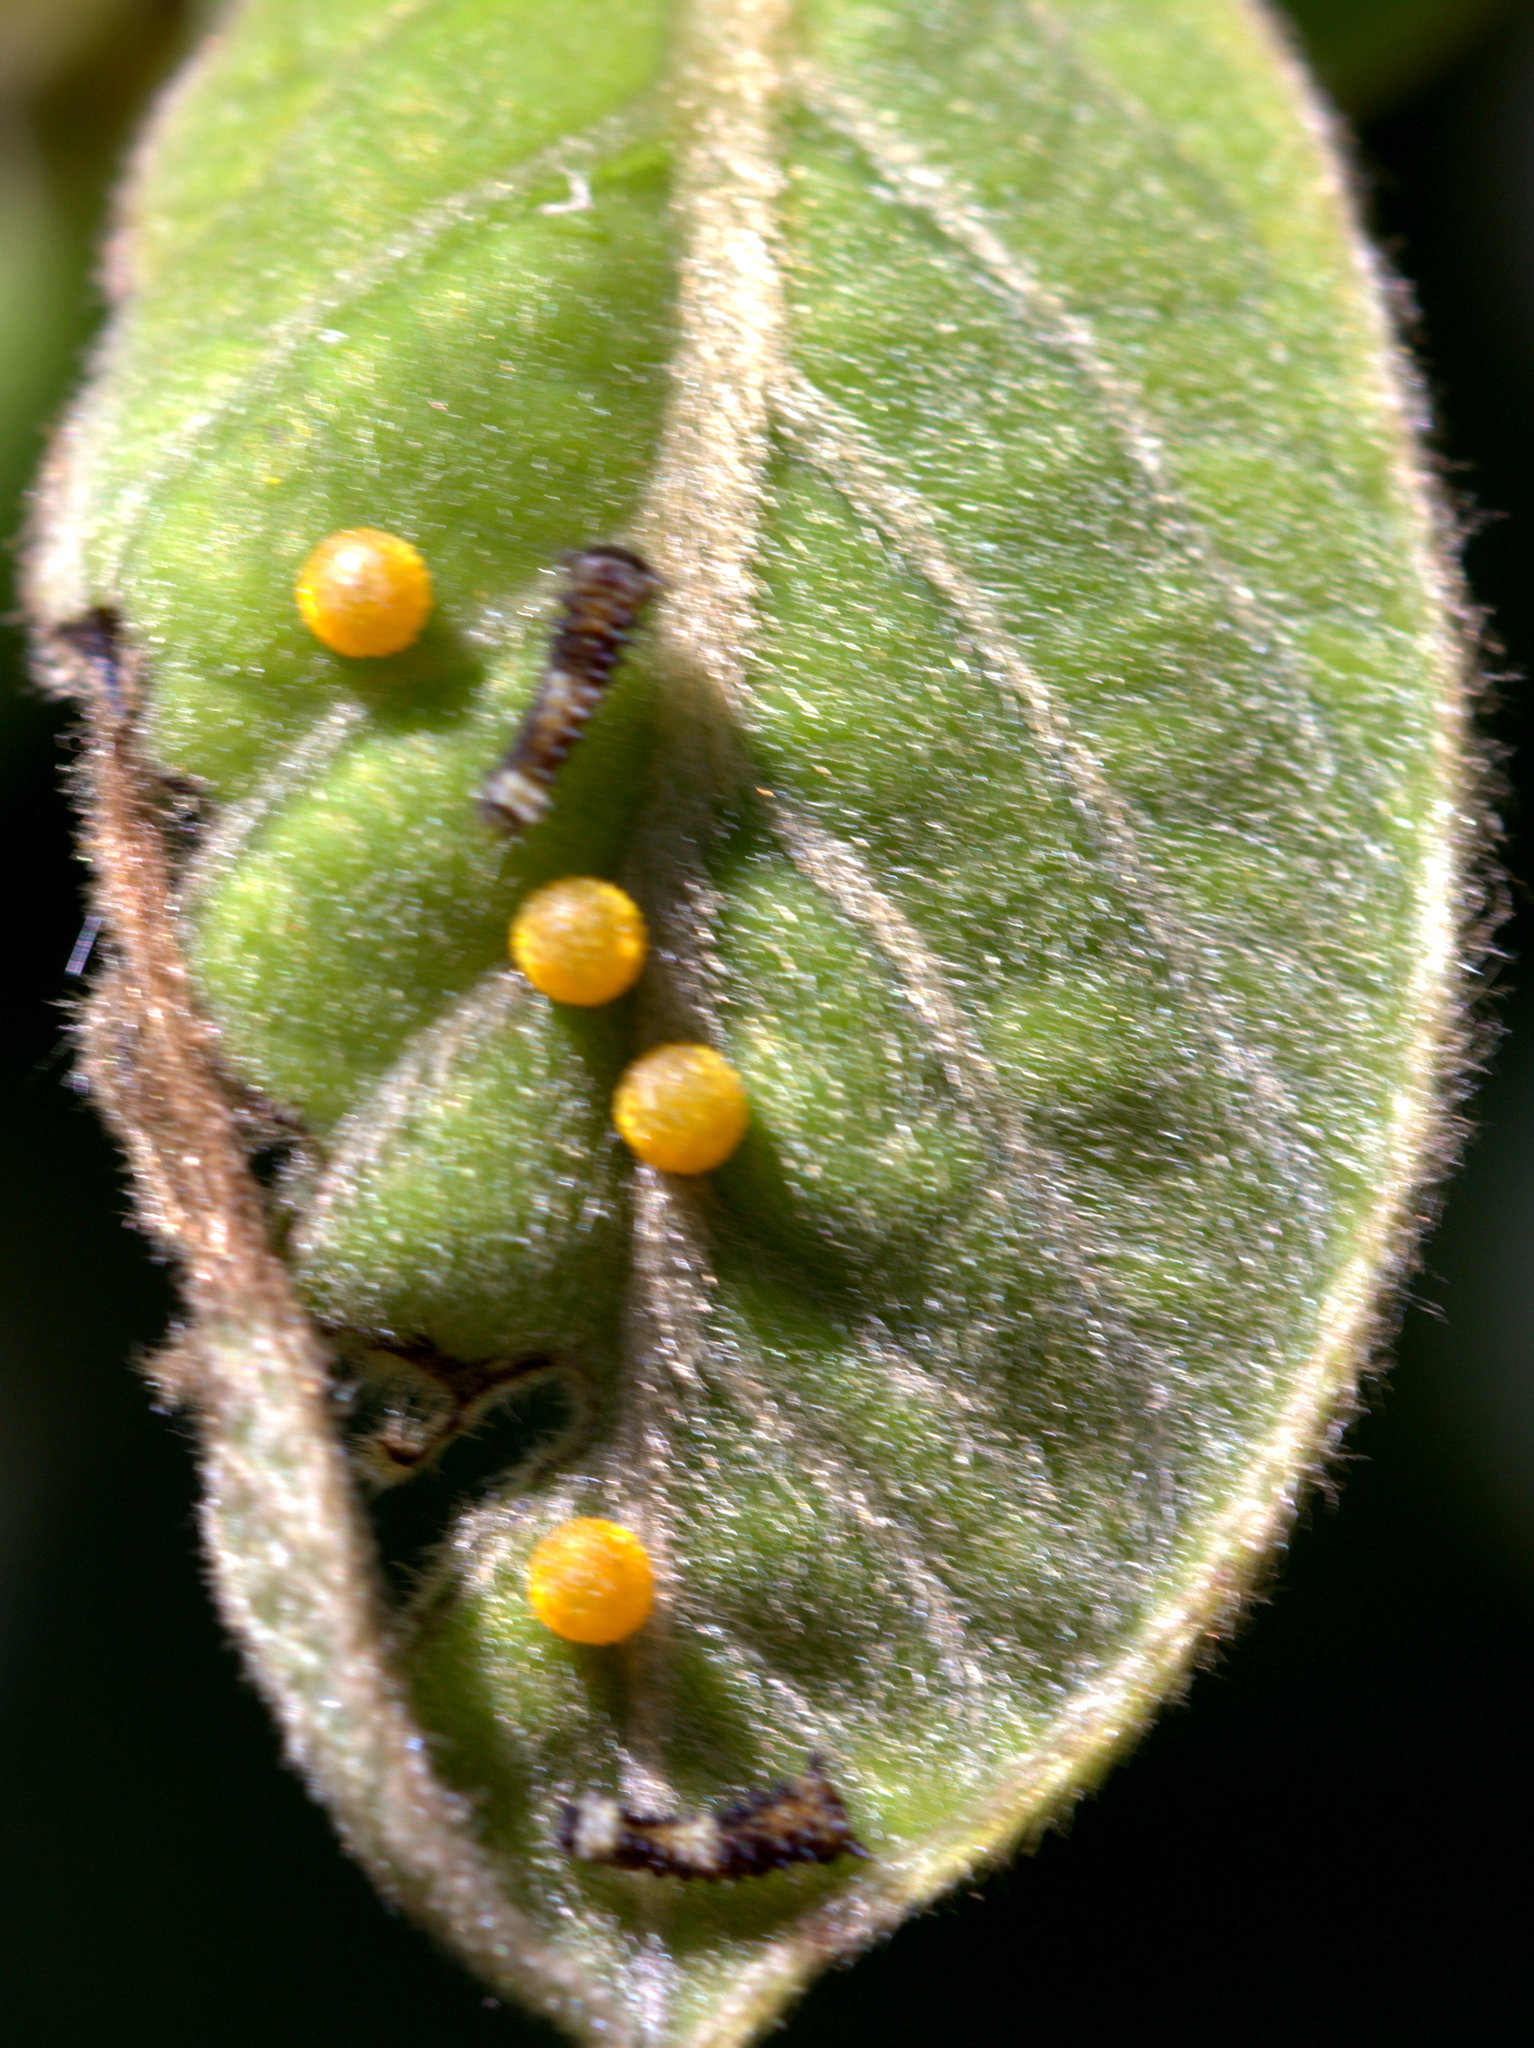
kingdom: Animalia
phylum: Arthropoda
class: Insecta
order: Lepidoptera
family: Papilionidae
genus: Chilasa
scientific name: Chilasa clytia
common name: Common mime
